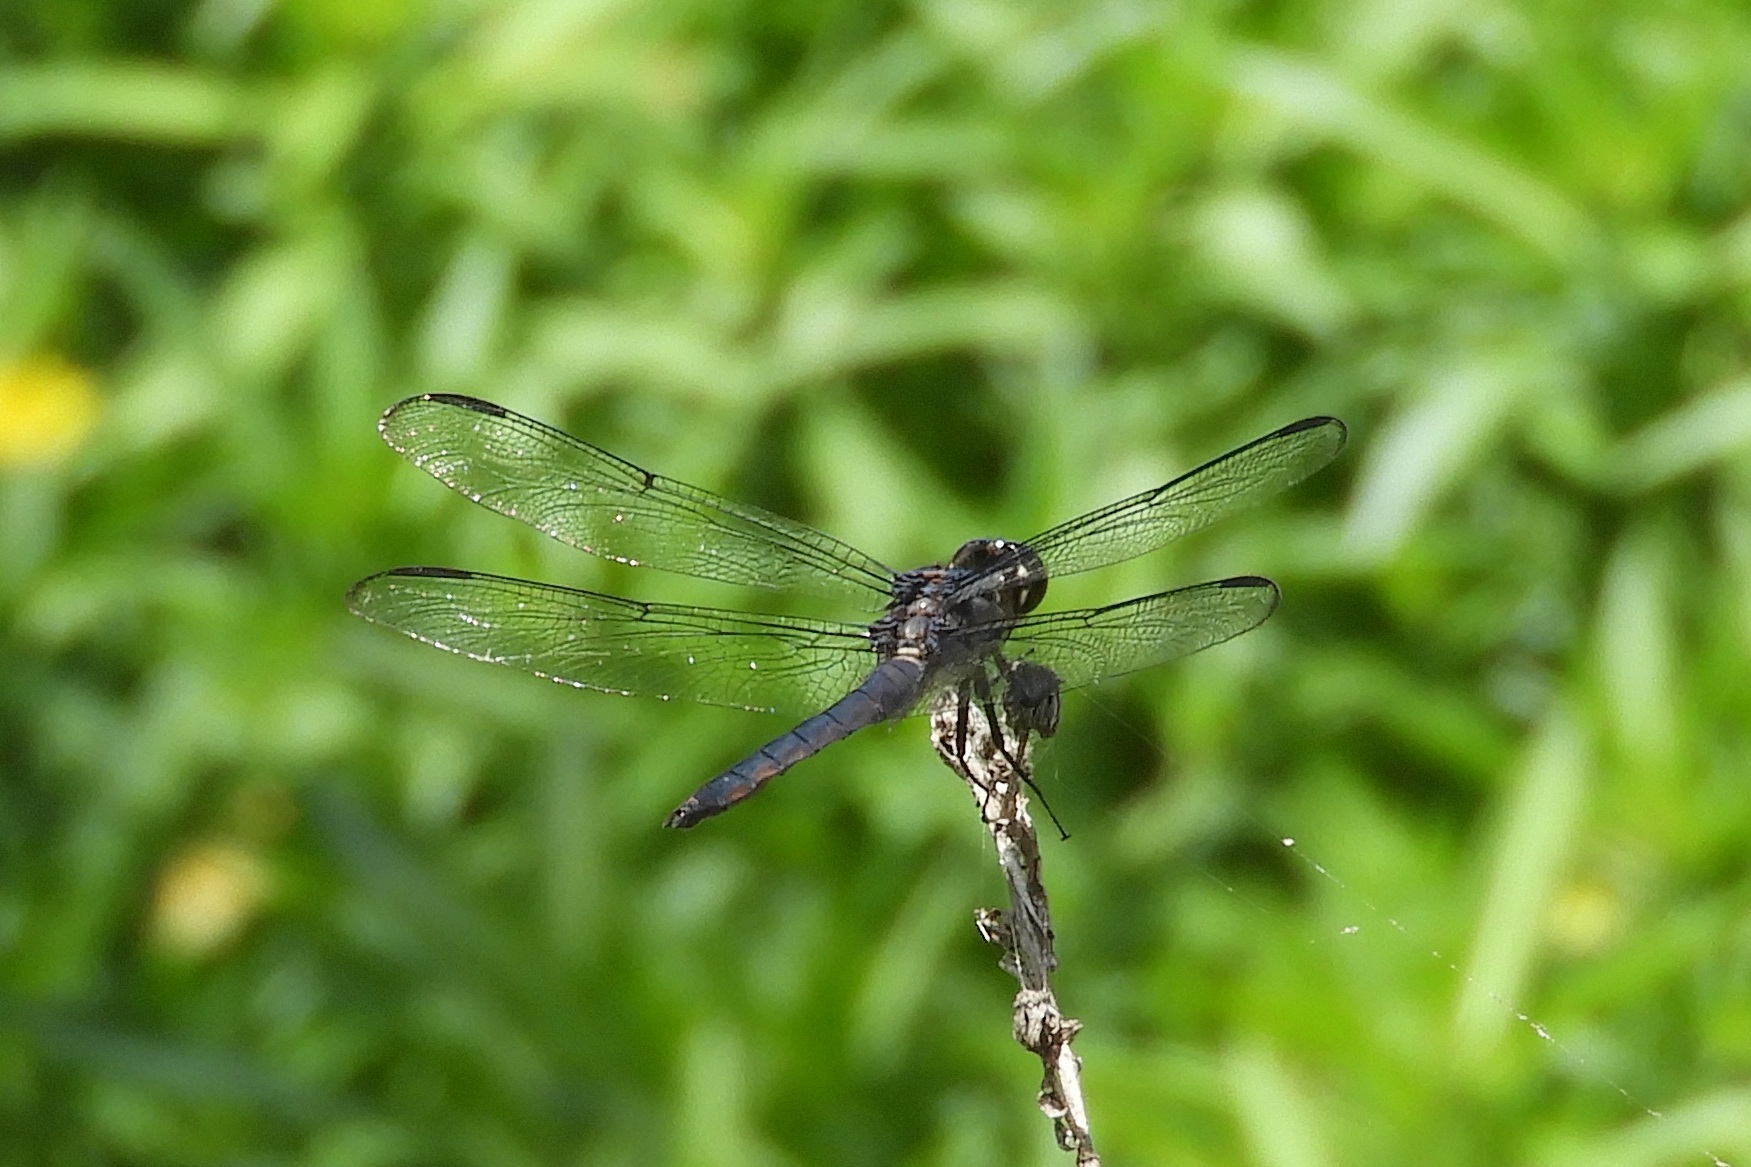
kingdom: Animalia
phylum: Arthropoda
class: Insecta
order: Odonata
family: Libellulidae
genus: Libellula
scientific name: Libellula incesta
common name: Slaty skimmer
